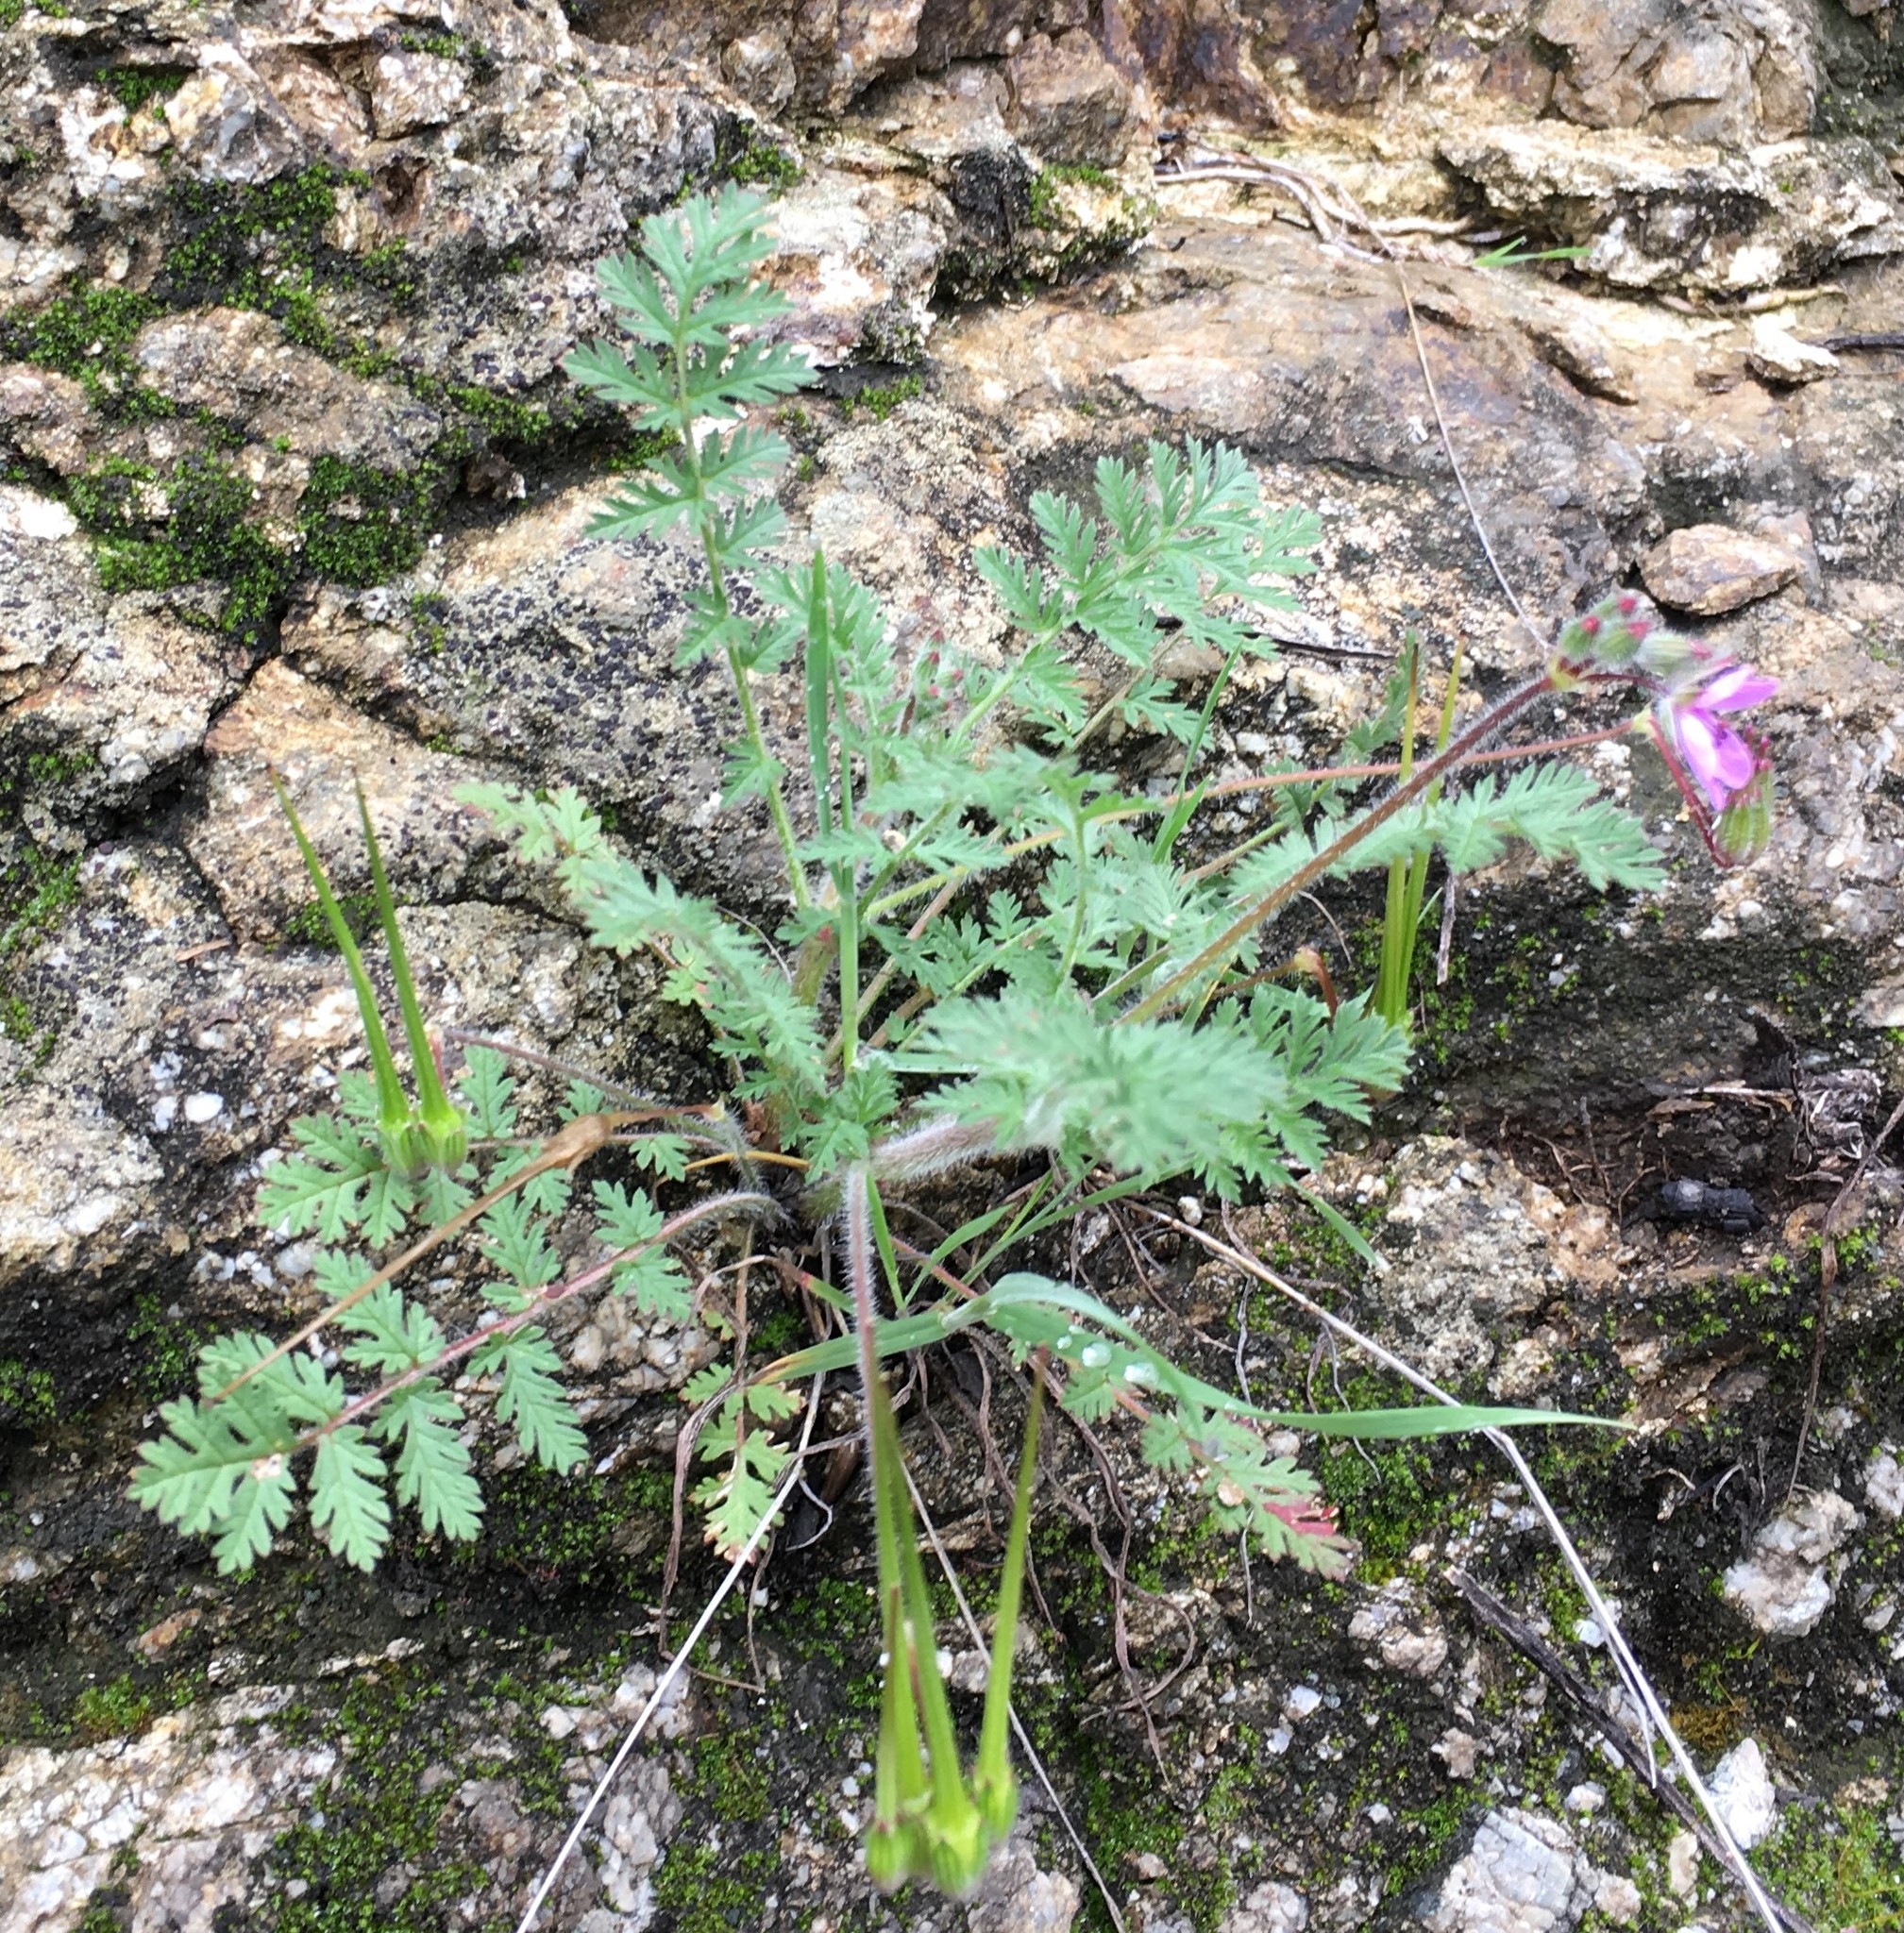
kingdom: Plantae
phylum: Tracheophyta
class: Magnoliopsida
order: Geraniales
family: Geraniaceae
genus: Erodium
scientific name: Erodium cicutarium
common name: Common stork's-bill
